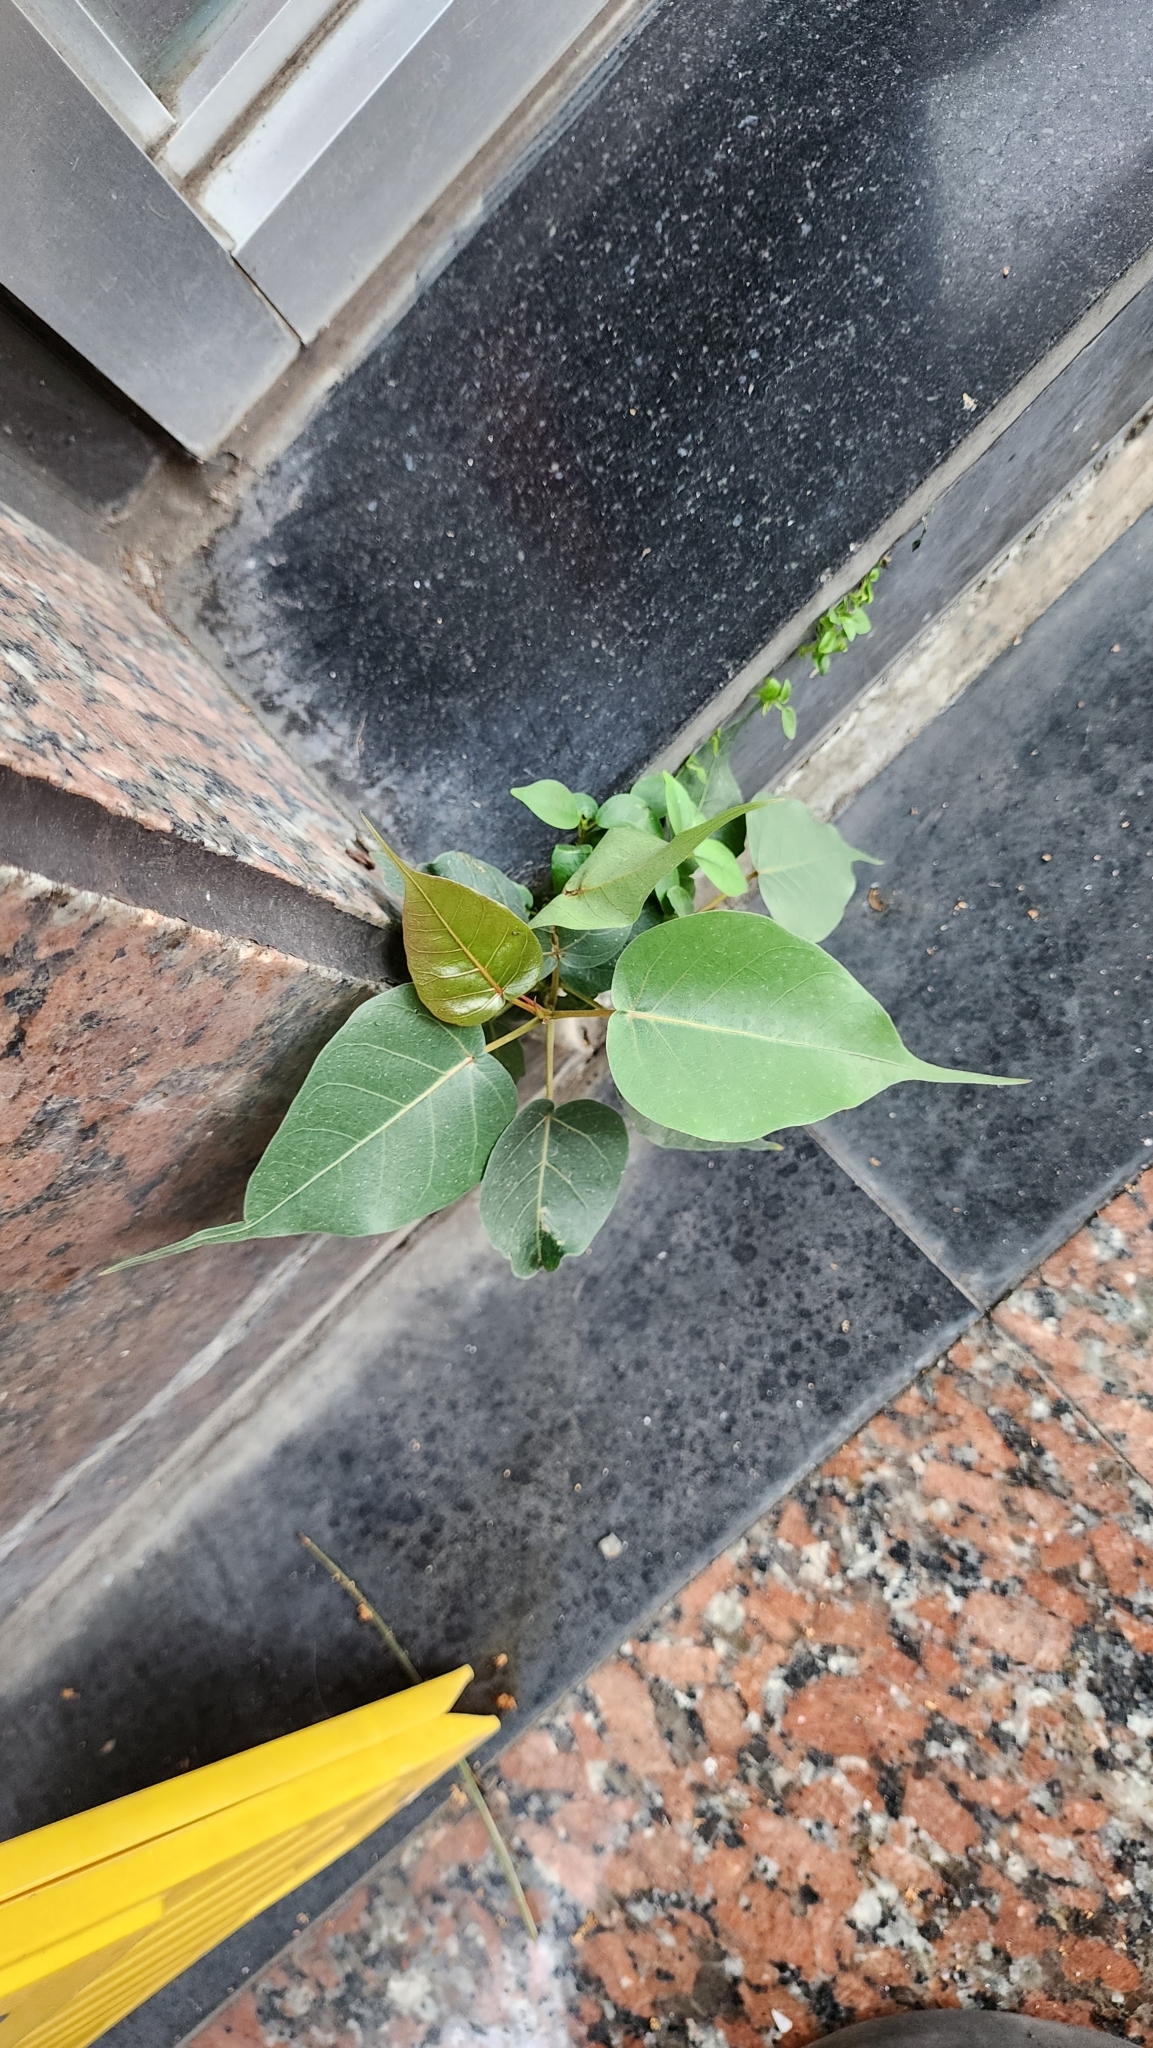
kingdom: Plantae
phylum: Tracheophyta
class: Magnoliopsida
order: Rosales
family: Moraceae
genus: Ficus
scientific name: Ficus religiosa
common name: Bodhi tree
